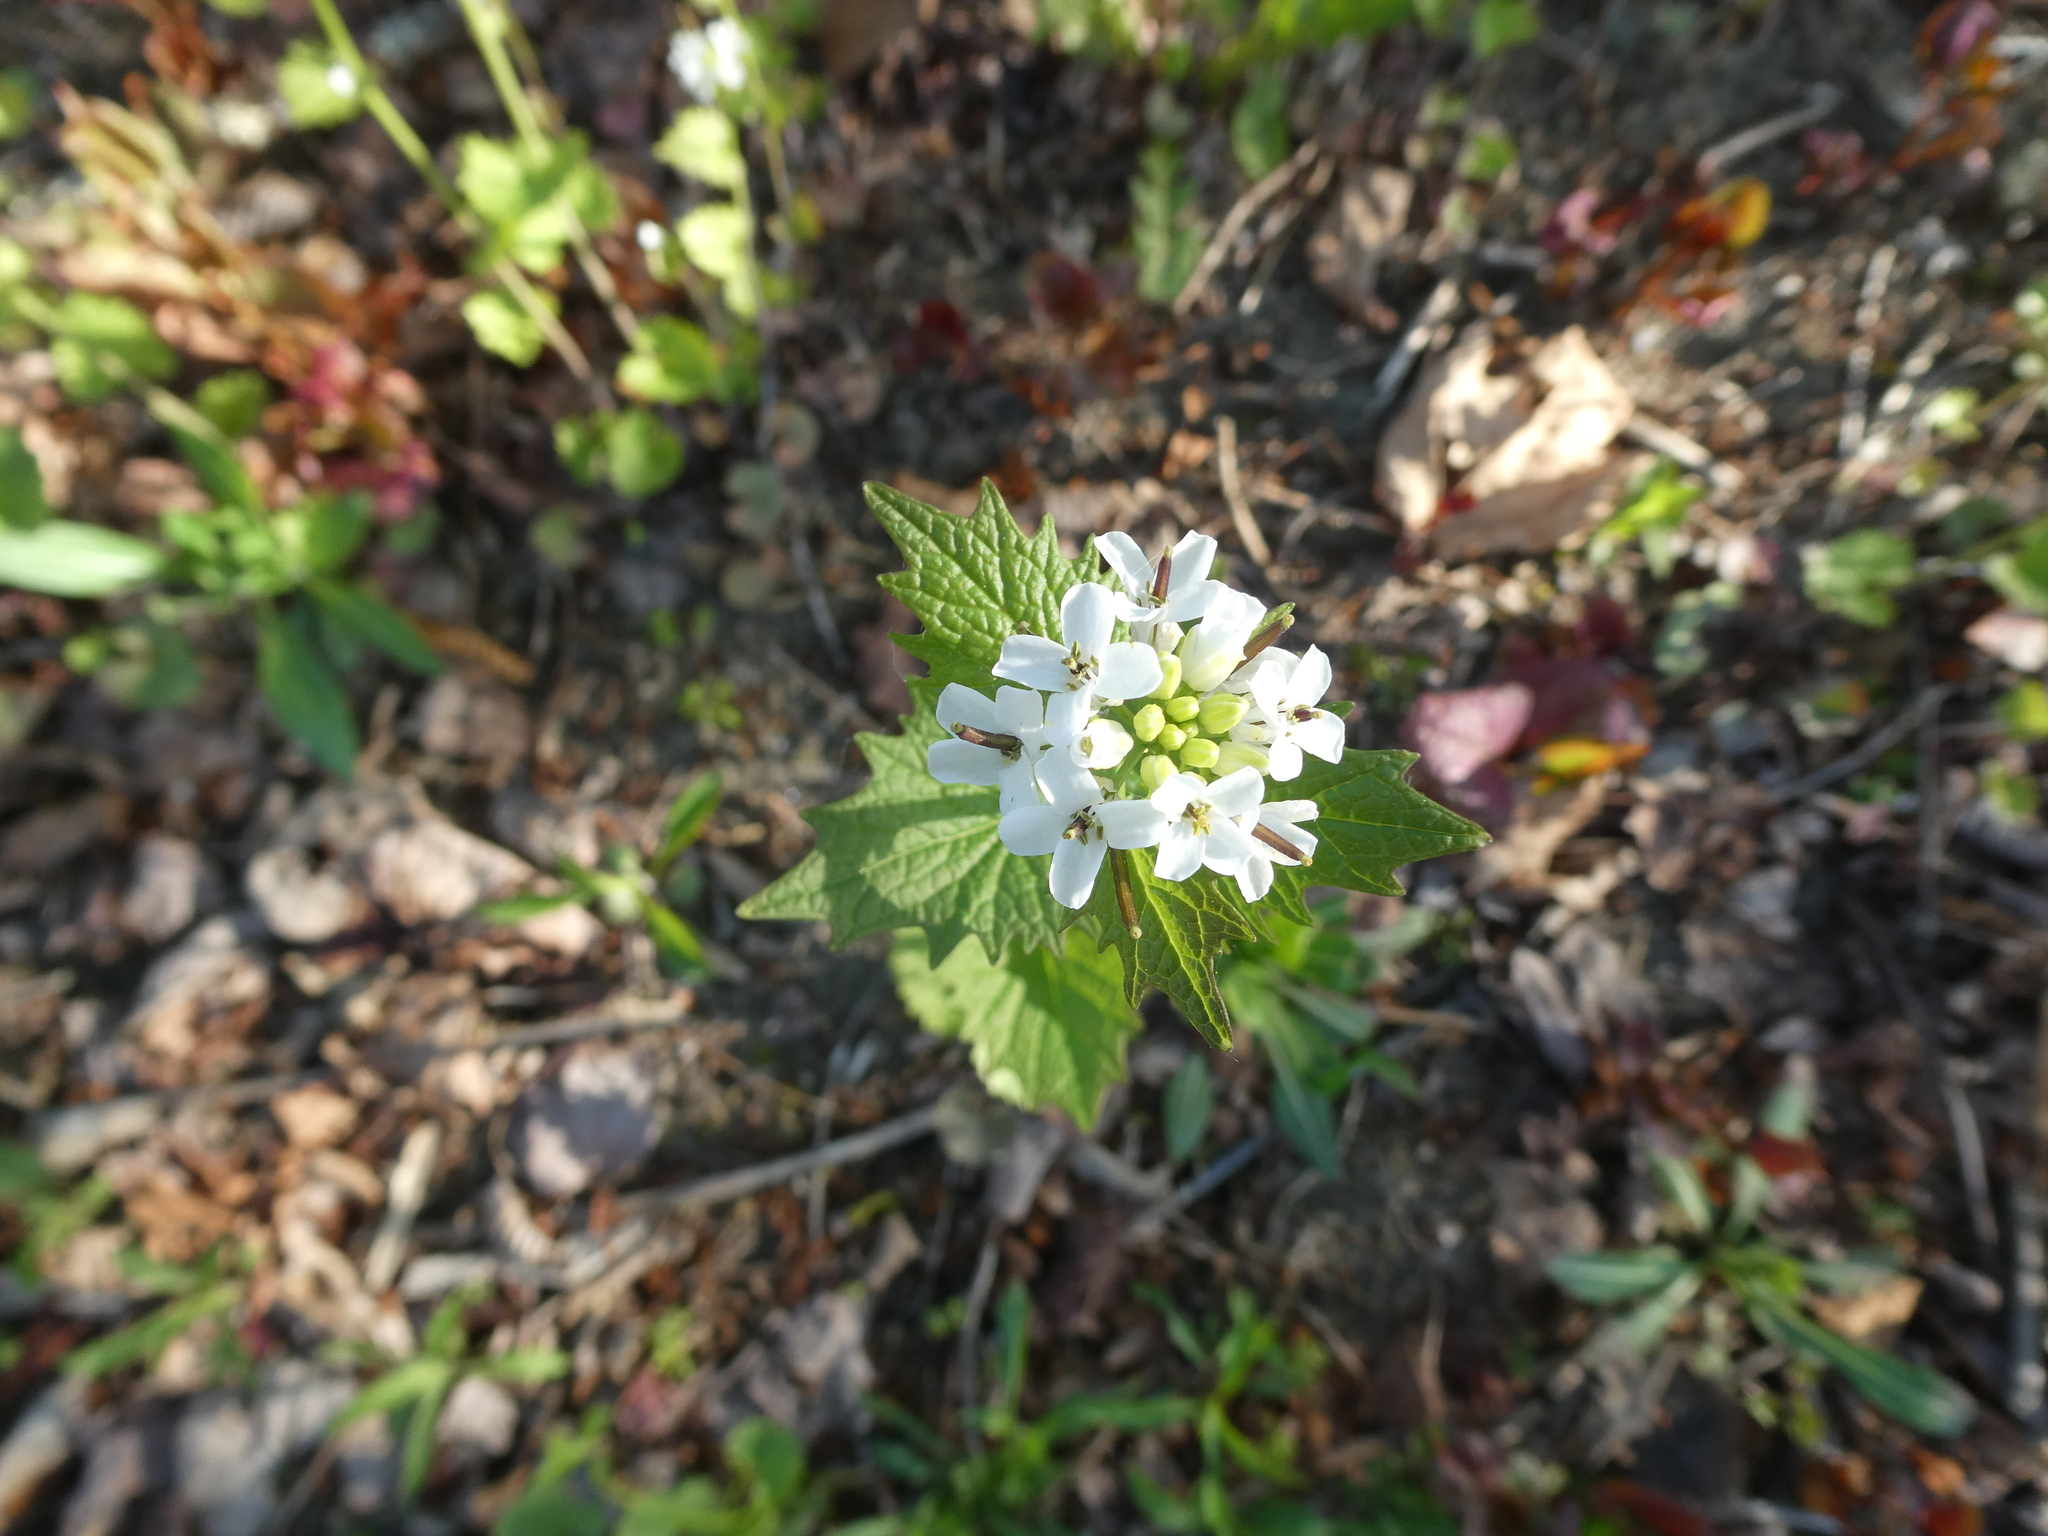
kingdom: Plantae
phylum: Tracheophyta
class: Magnoliopsida
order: Brassicales
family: Brassicaceae
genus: Alliaria
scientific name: Alliaria petiolata
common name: Garlic mustard
